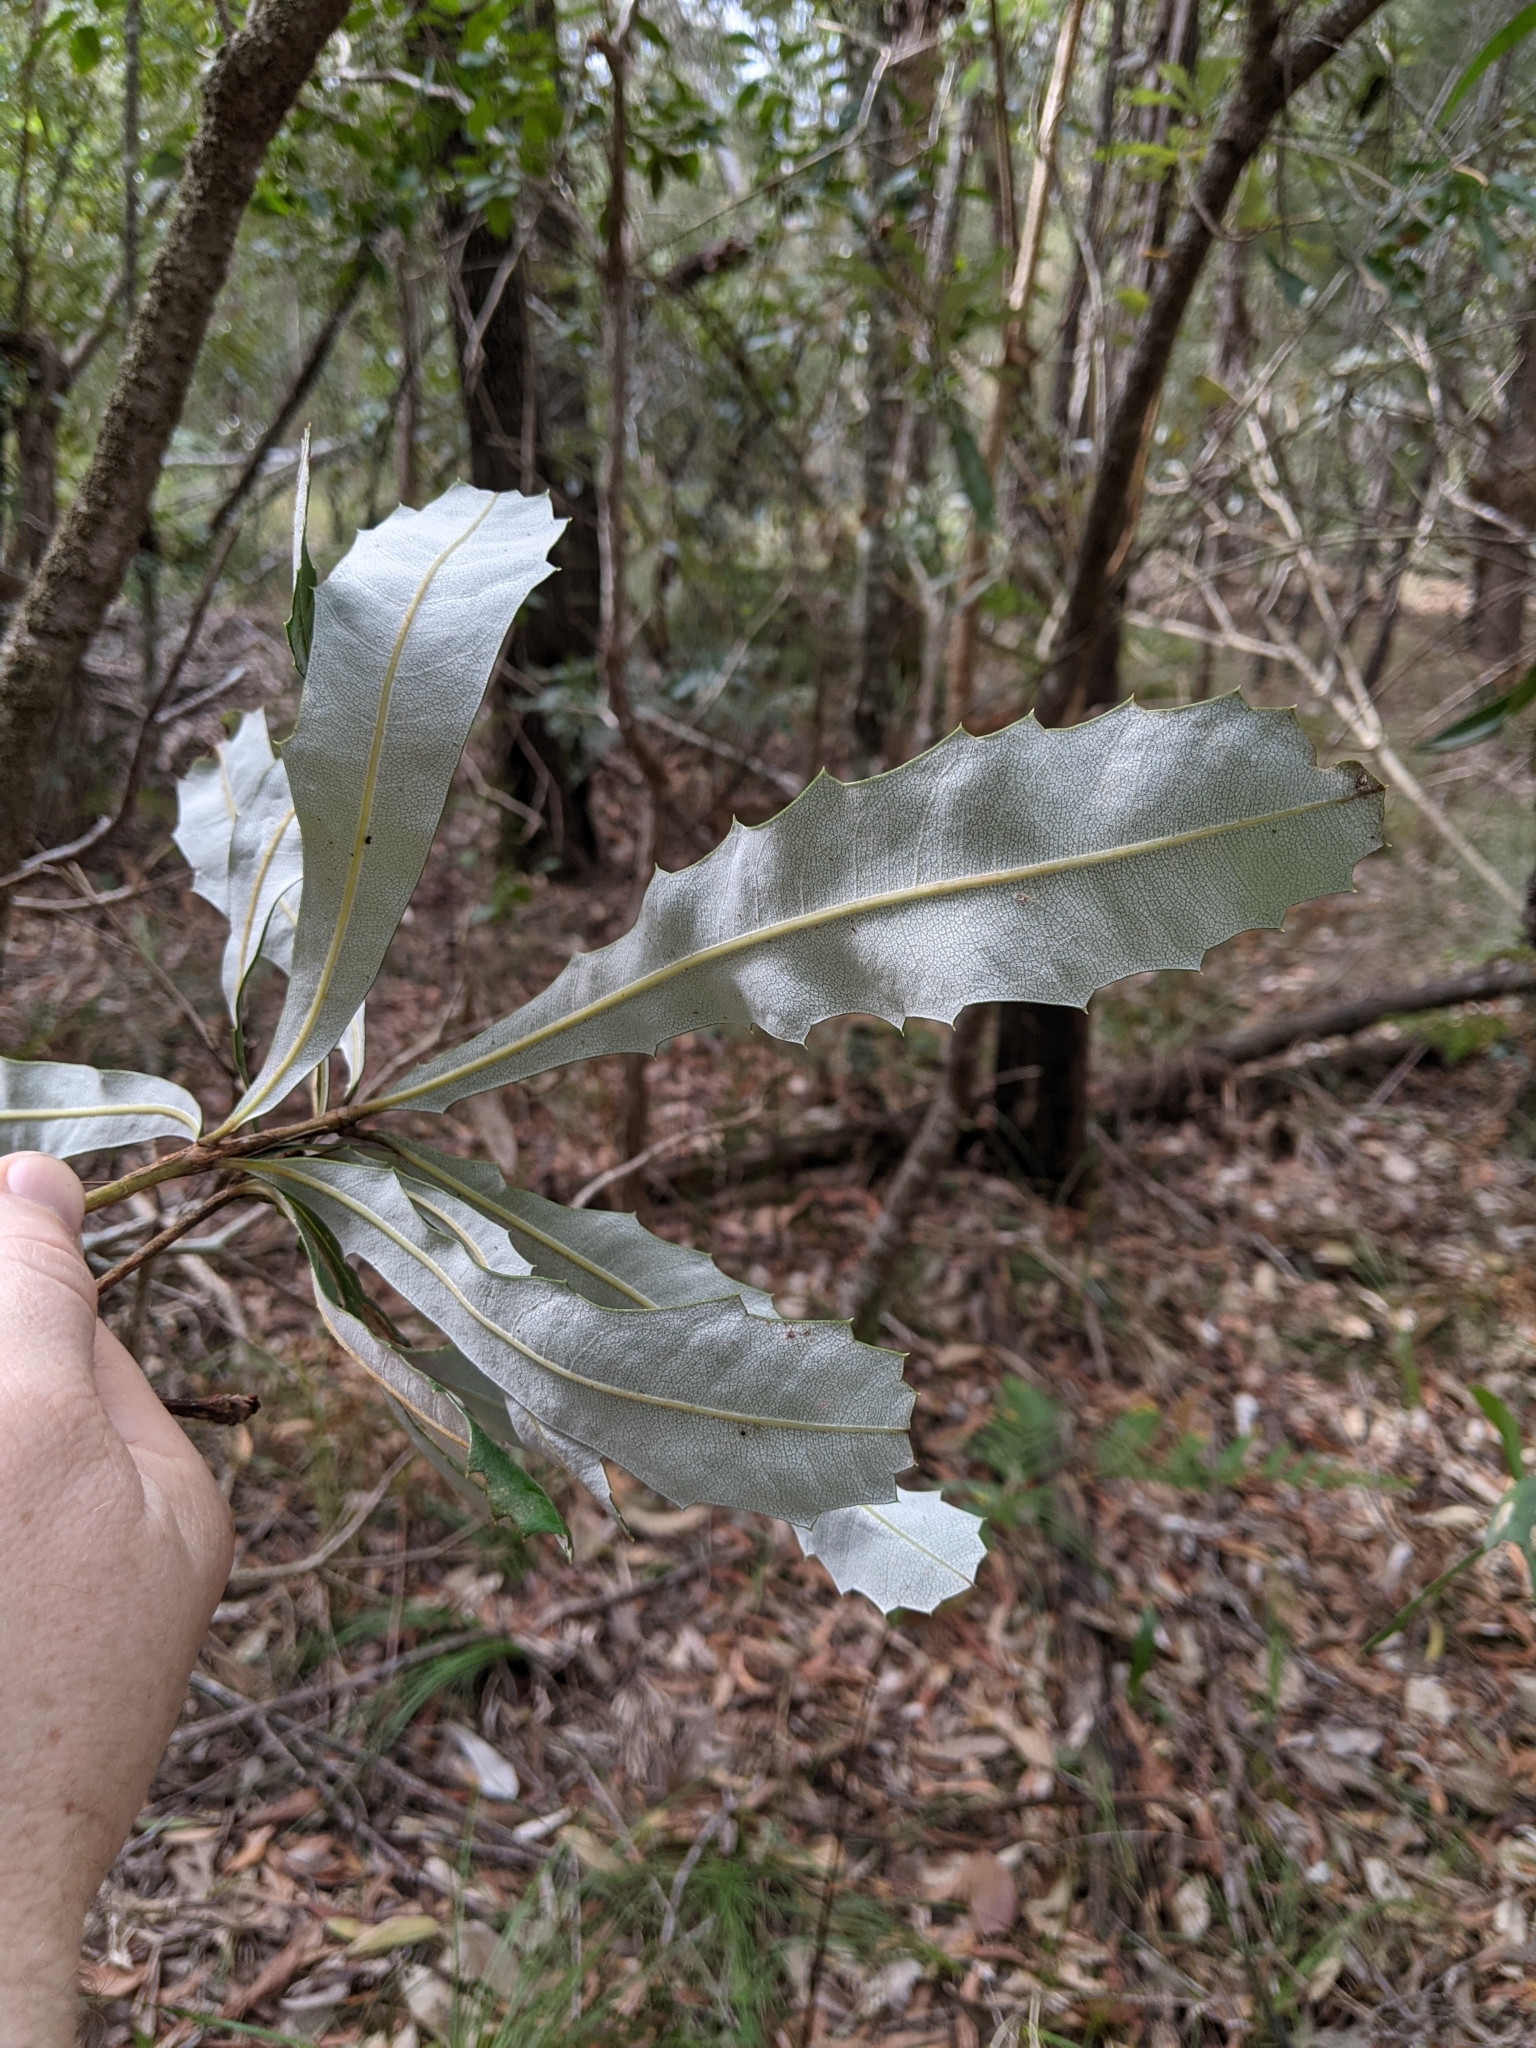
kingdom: Plantae
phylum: Tracheophyta
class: Magnoliopsida
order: Proteales
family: Proteaceae
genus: Banksia
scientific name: Banksia integrifolia
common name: White-honeysuckle
